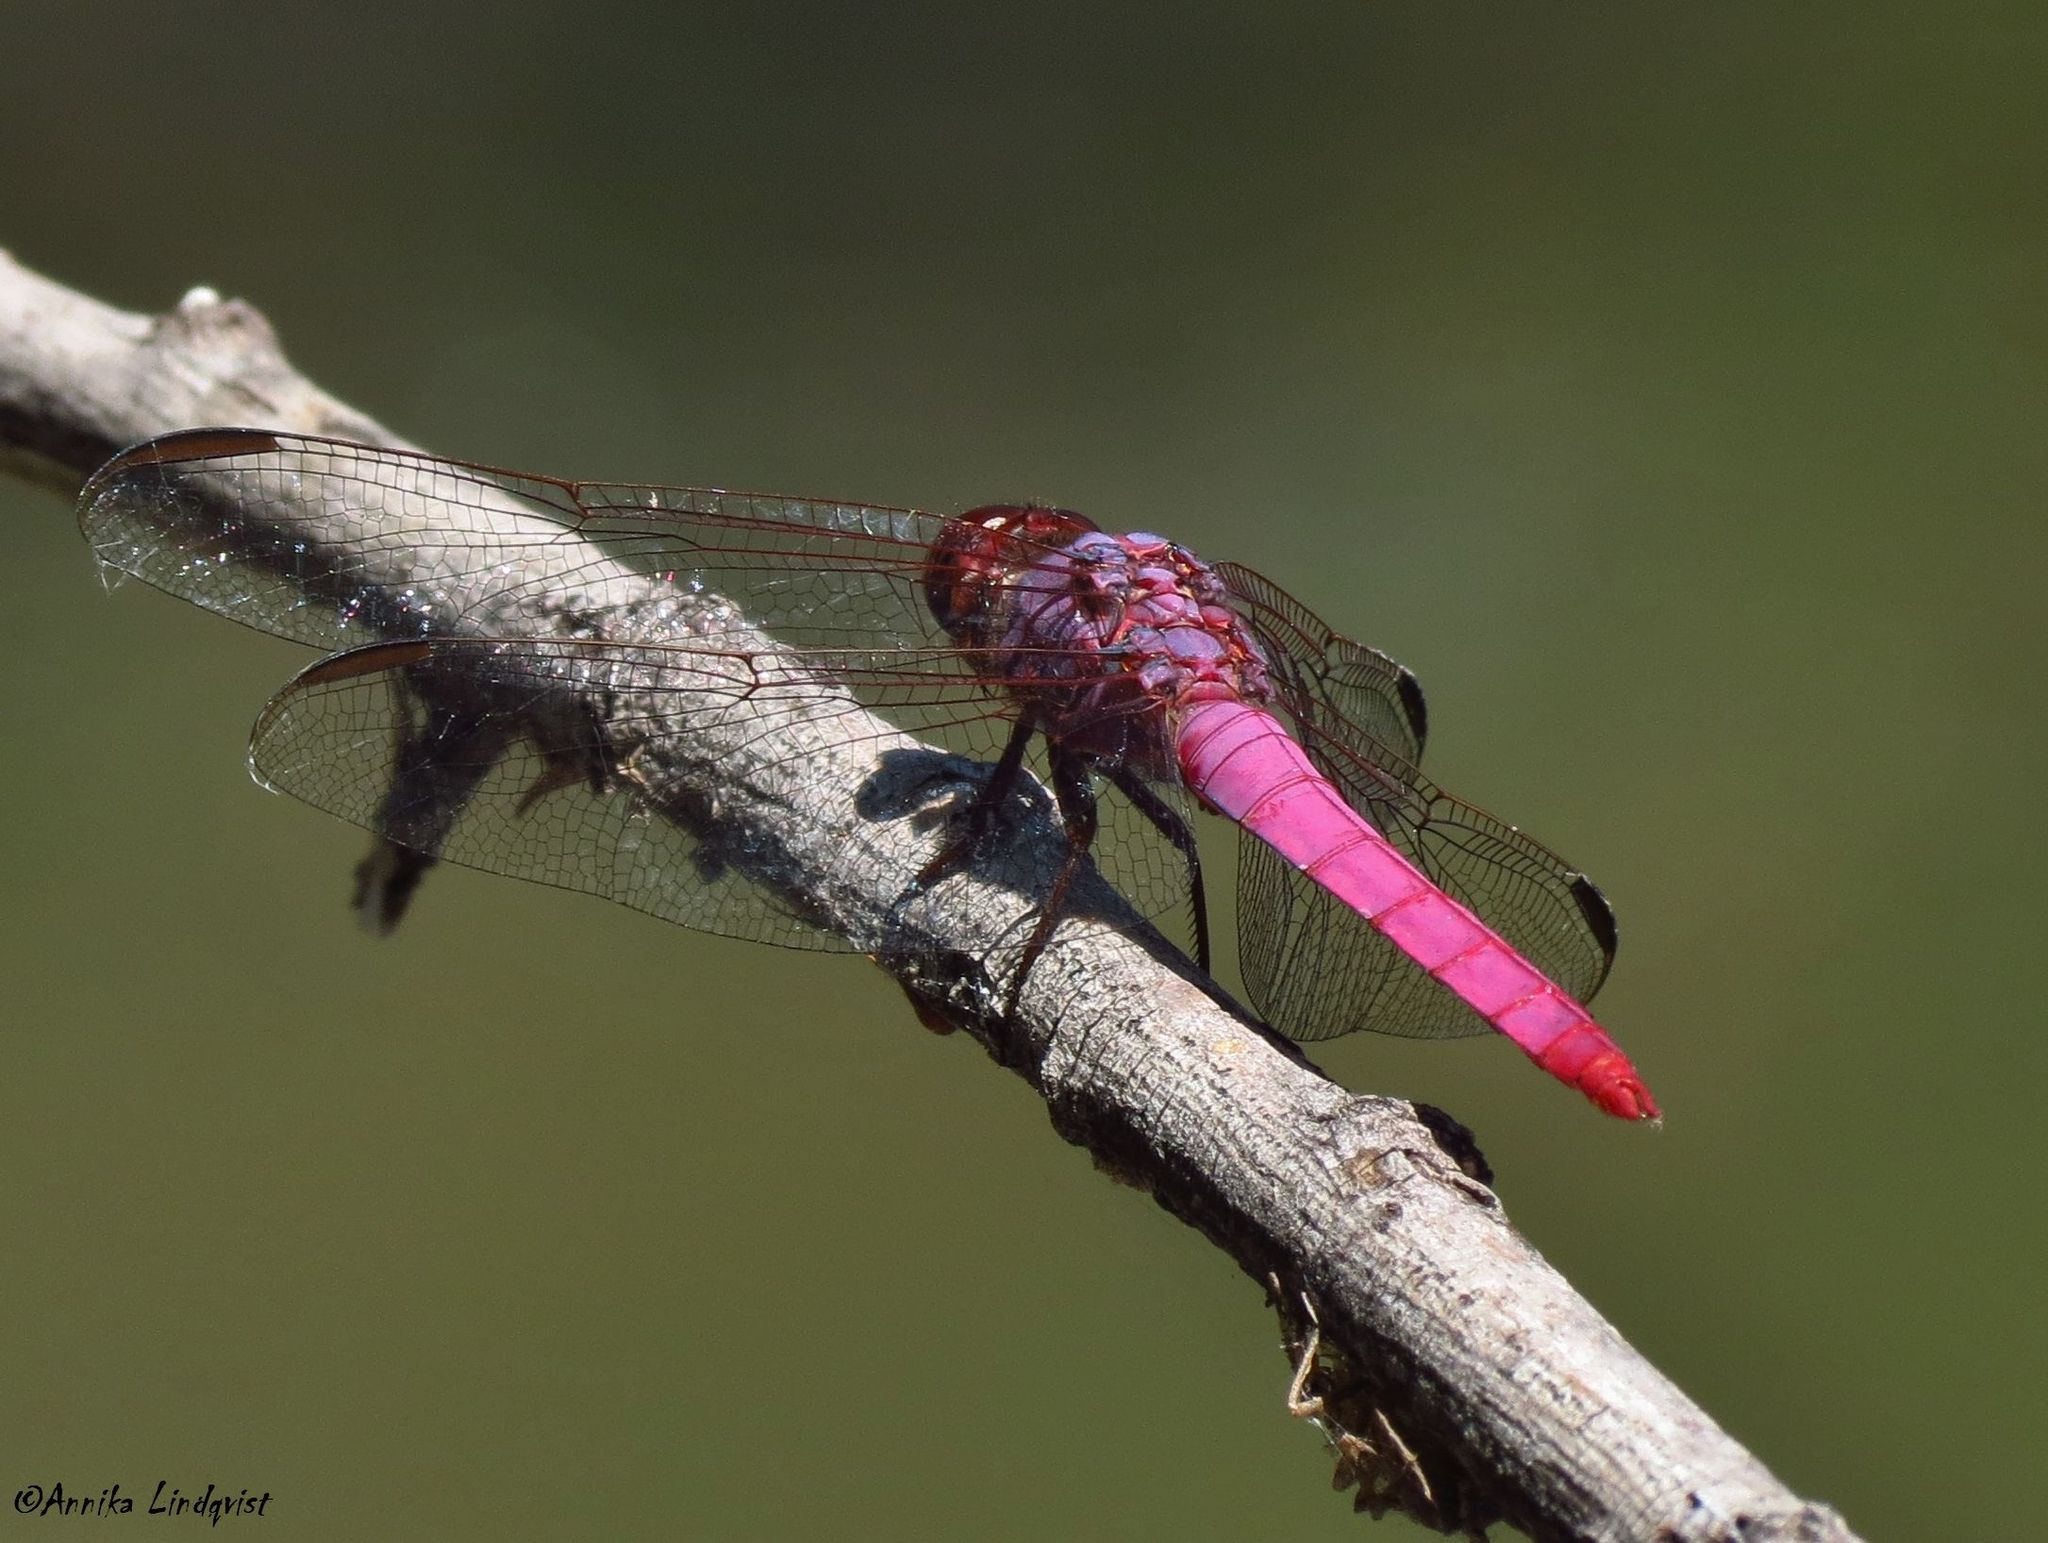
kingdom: Animalia
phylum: Arthropoda
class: Insecta
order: Odonata
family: Libellulidae
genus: Orthemis
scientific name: Orthemis ferruginea
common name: Roseate skimmer
